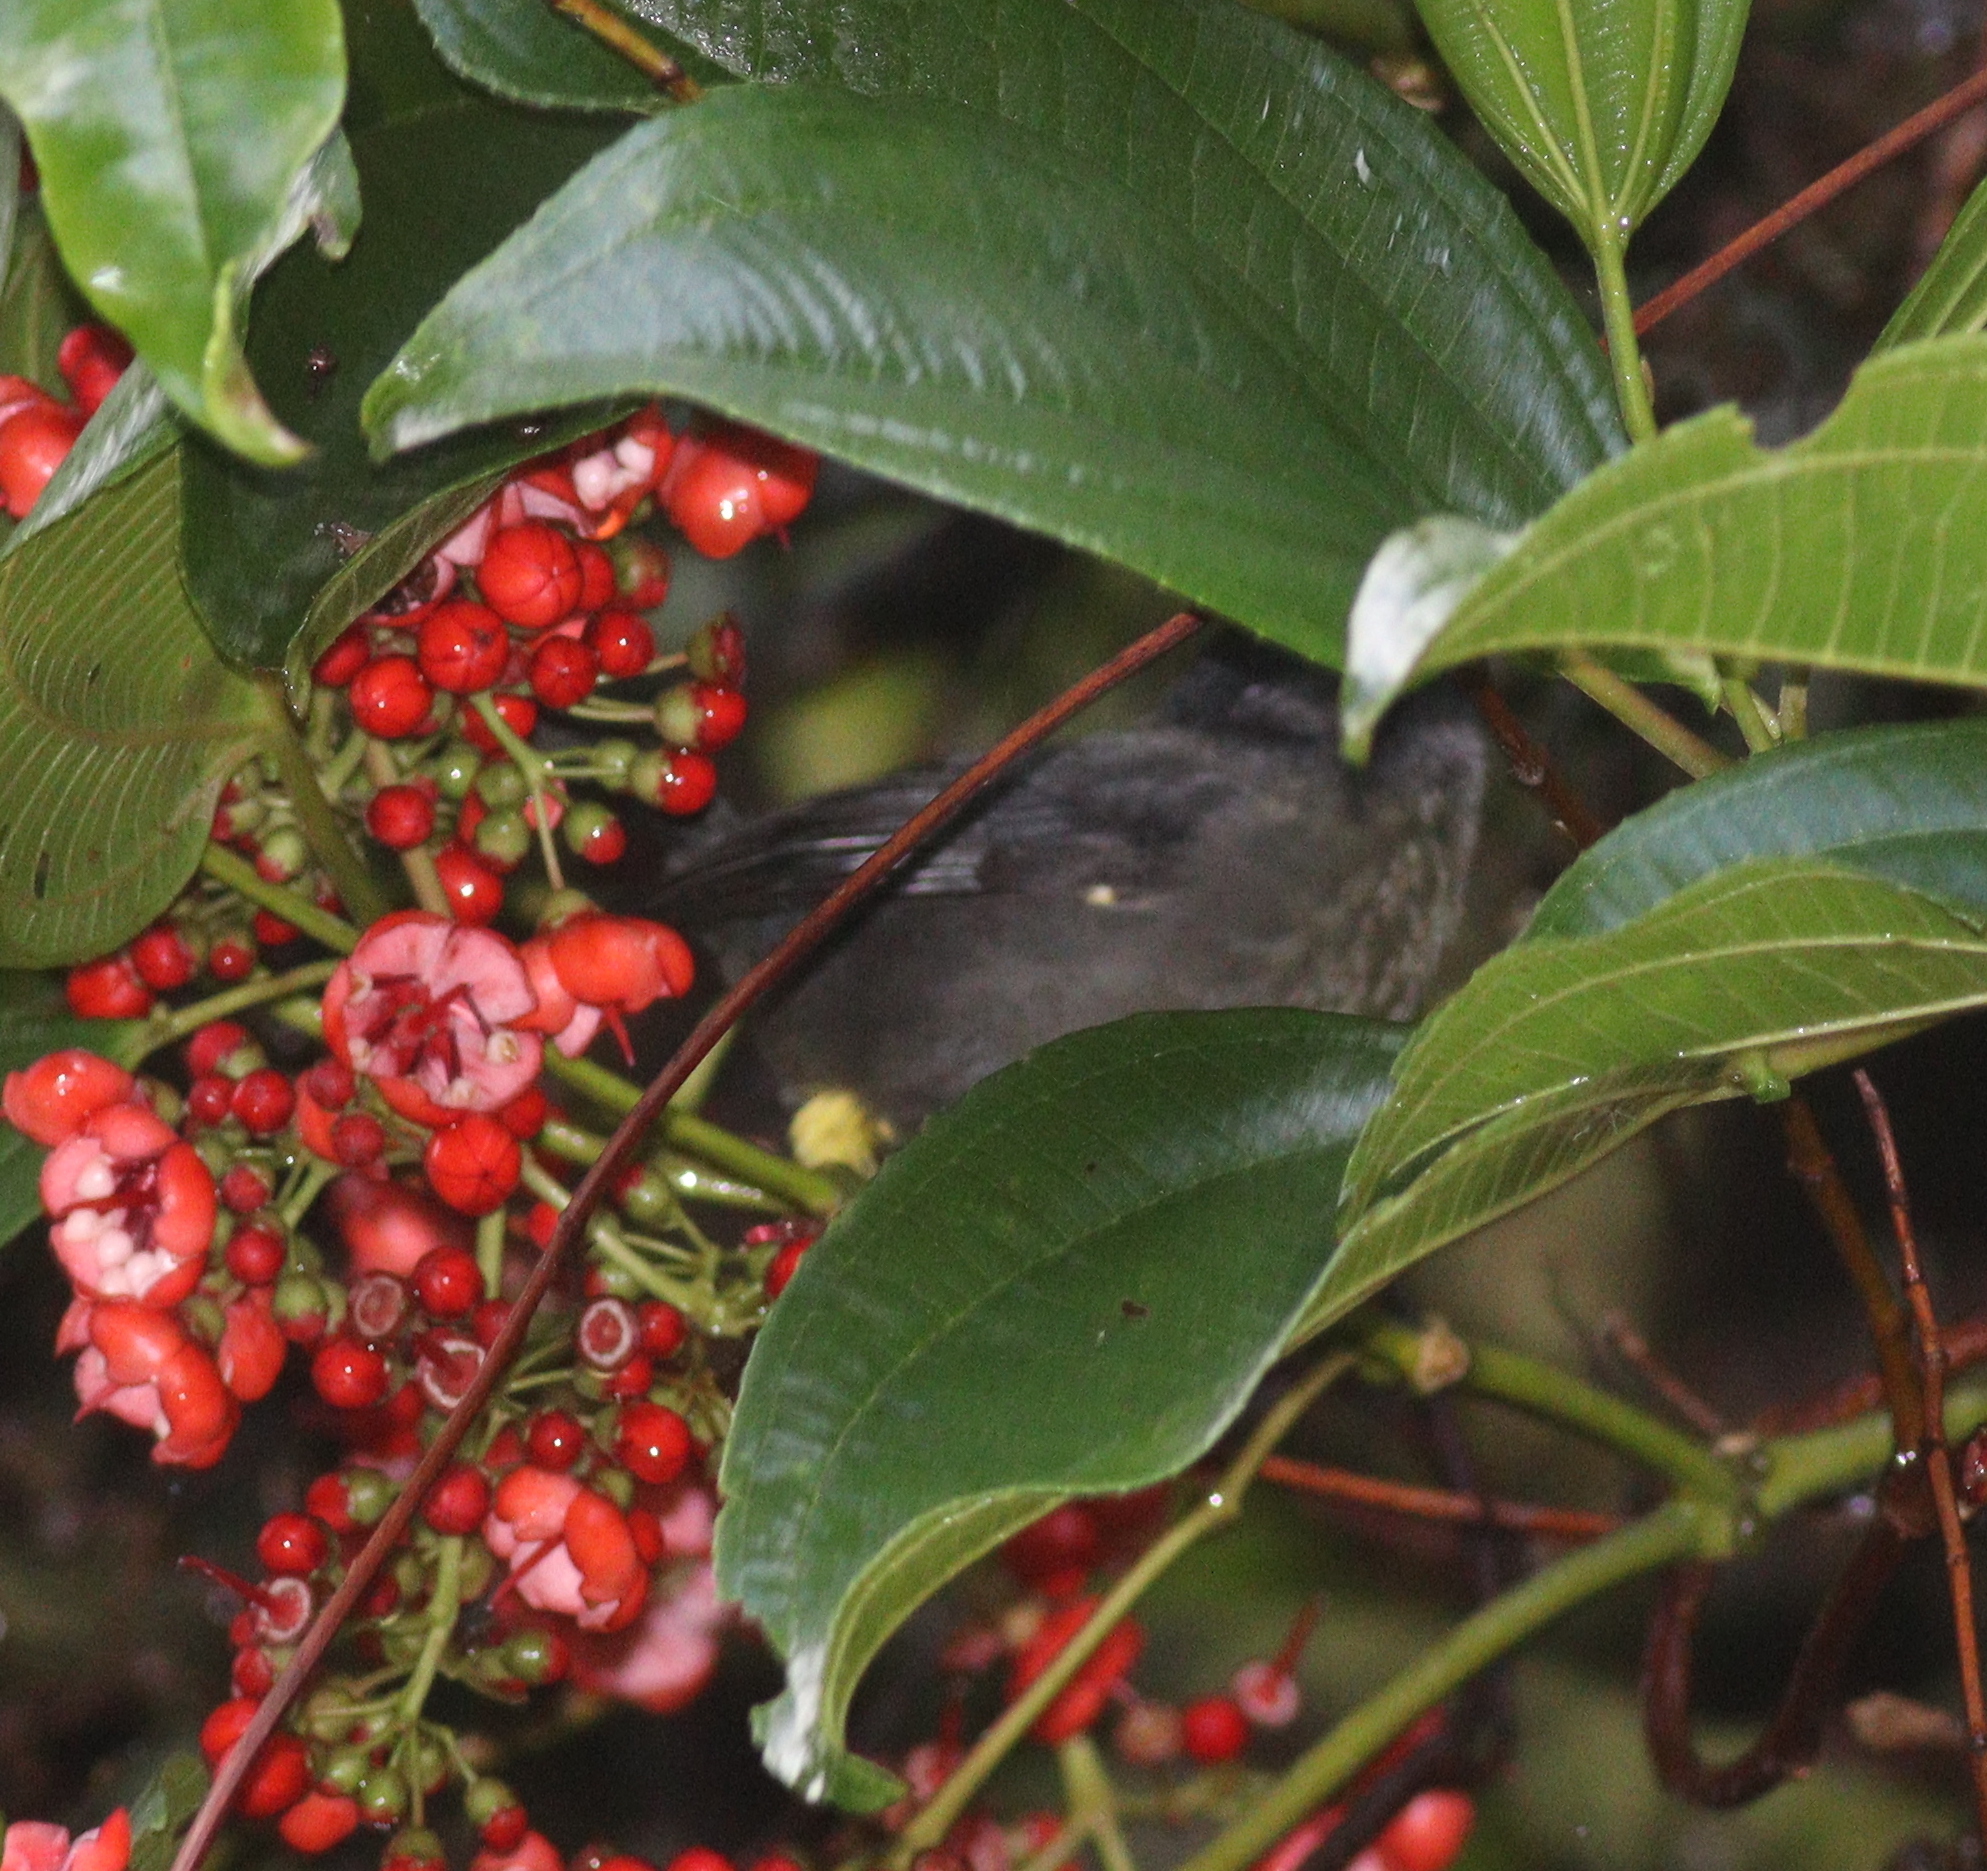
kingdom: Animalia
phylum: Chordata
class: Aves
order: Passeriformes
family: Passerellidae
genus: Atlapetes
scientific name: Atlapetes tibialis
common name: Yellow-thighed brushfinch
